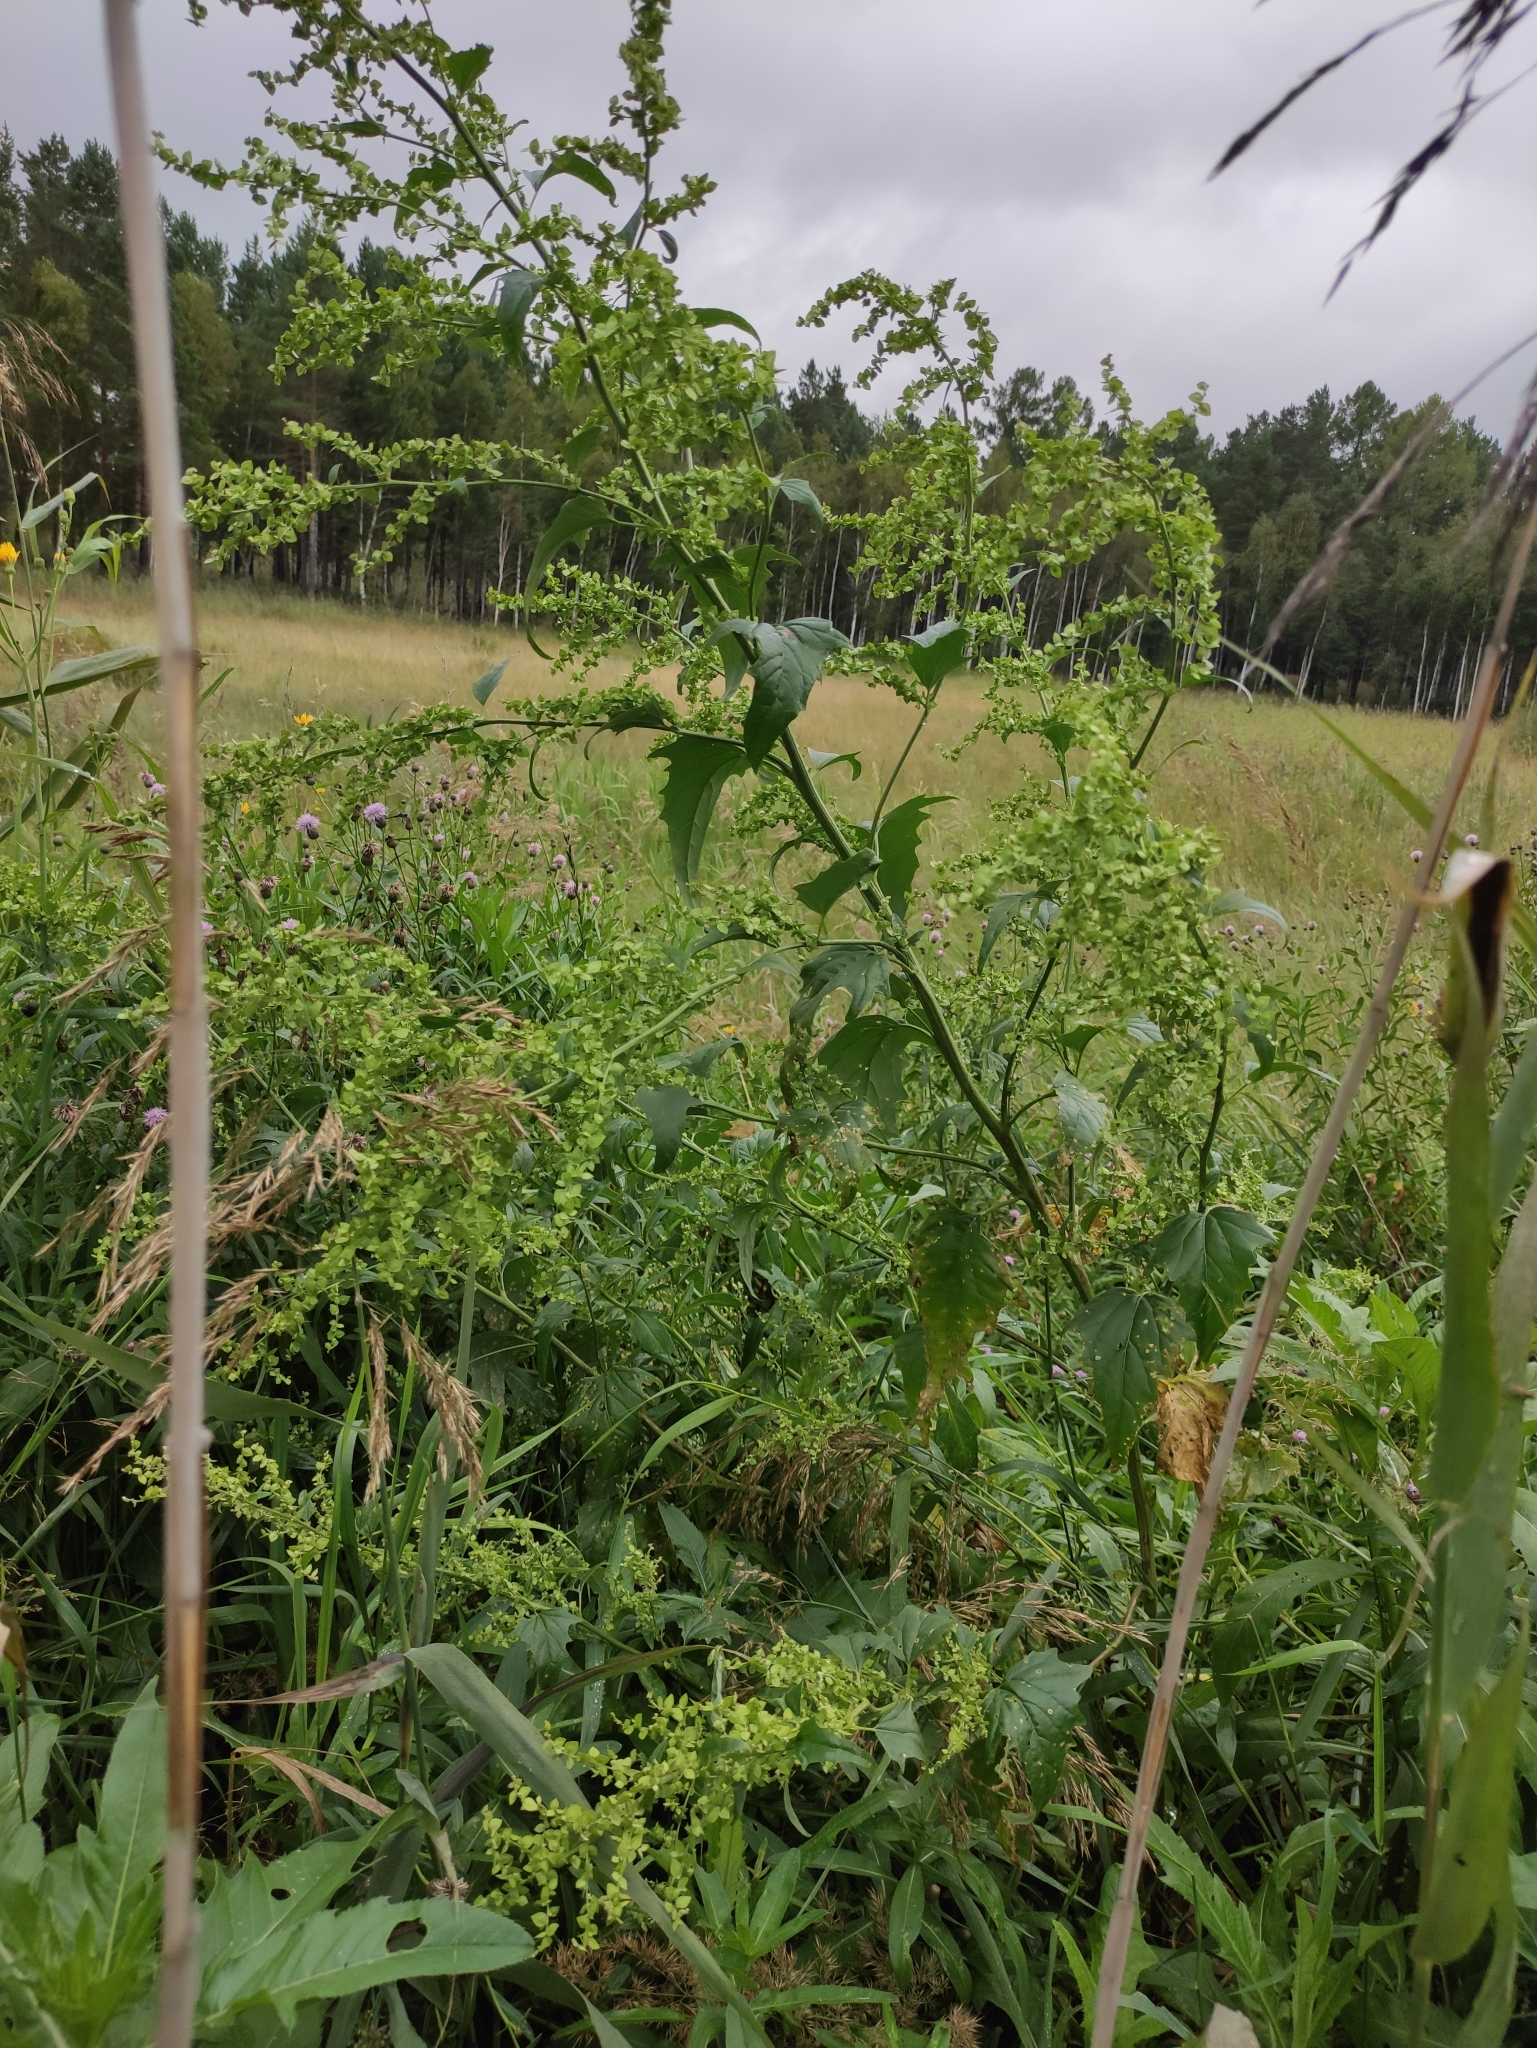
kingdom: Plantae
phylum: Tracheophyta
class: Magnoliopsida
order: Caryophyllales
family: Amaranthaceae
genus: Atriplex
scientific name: Atriplex sagittata
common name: Purple orache
